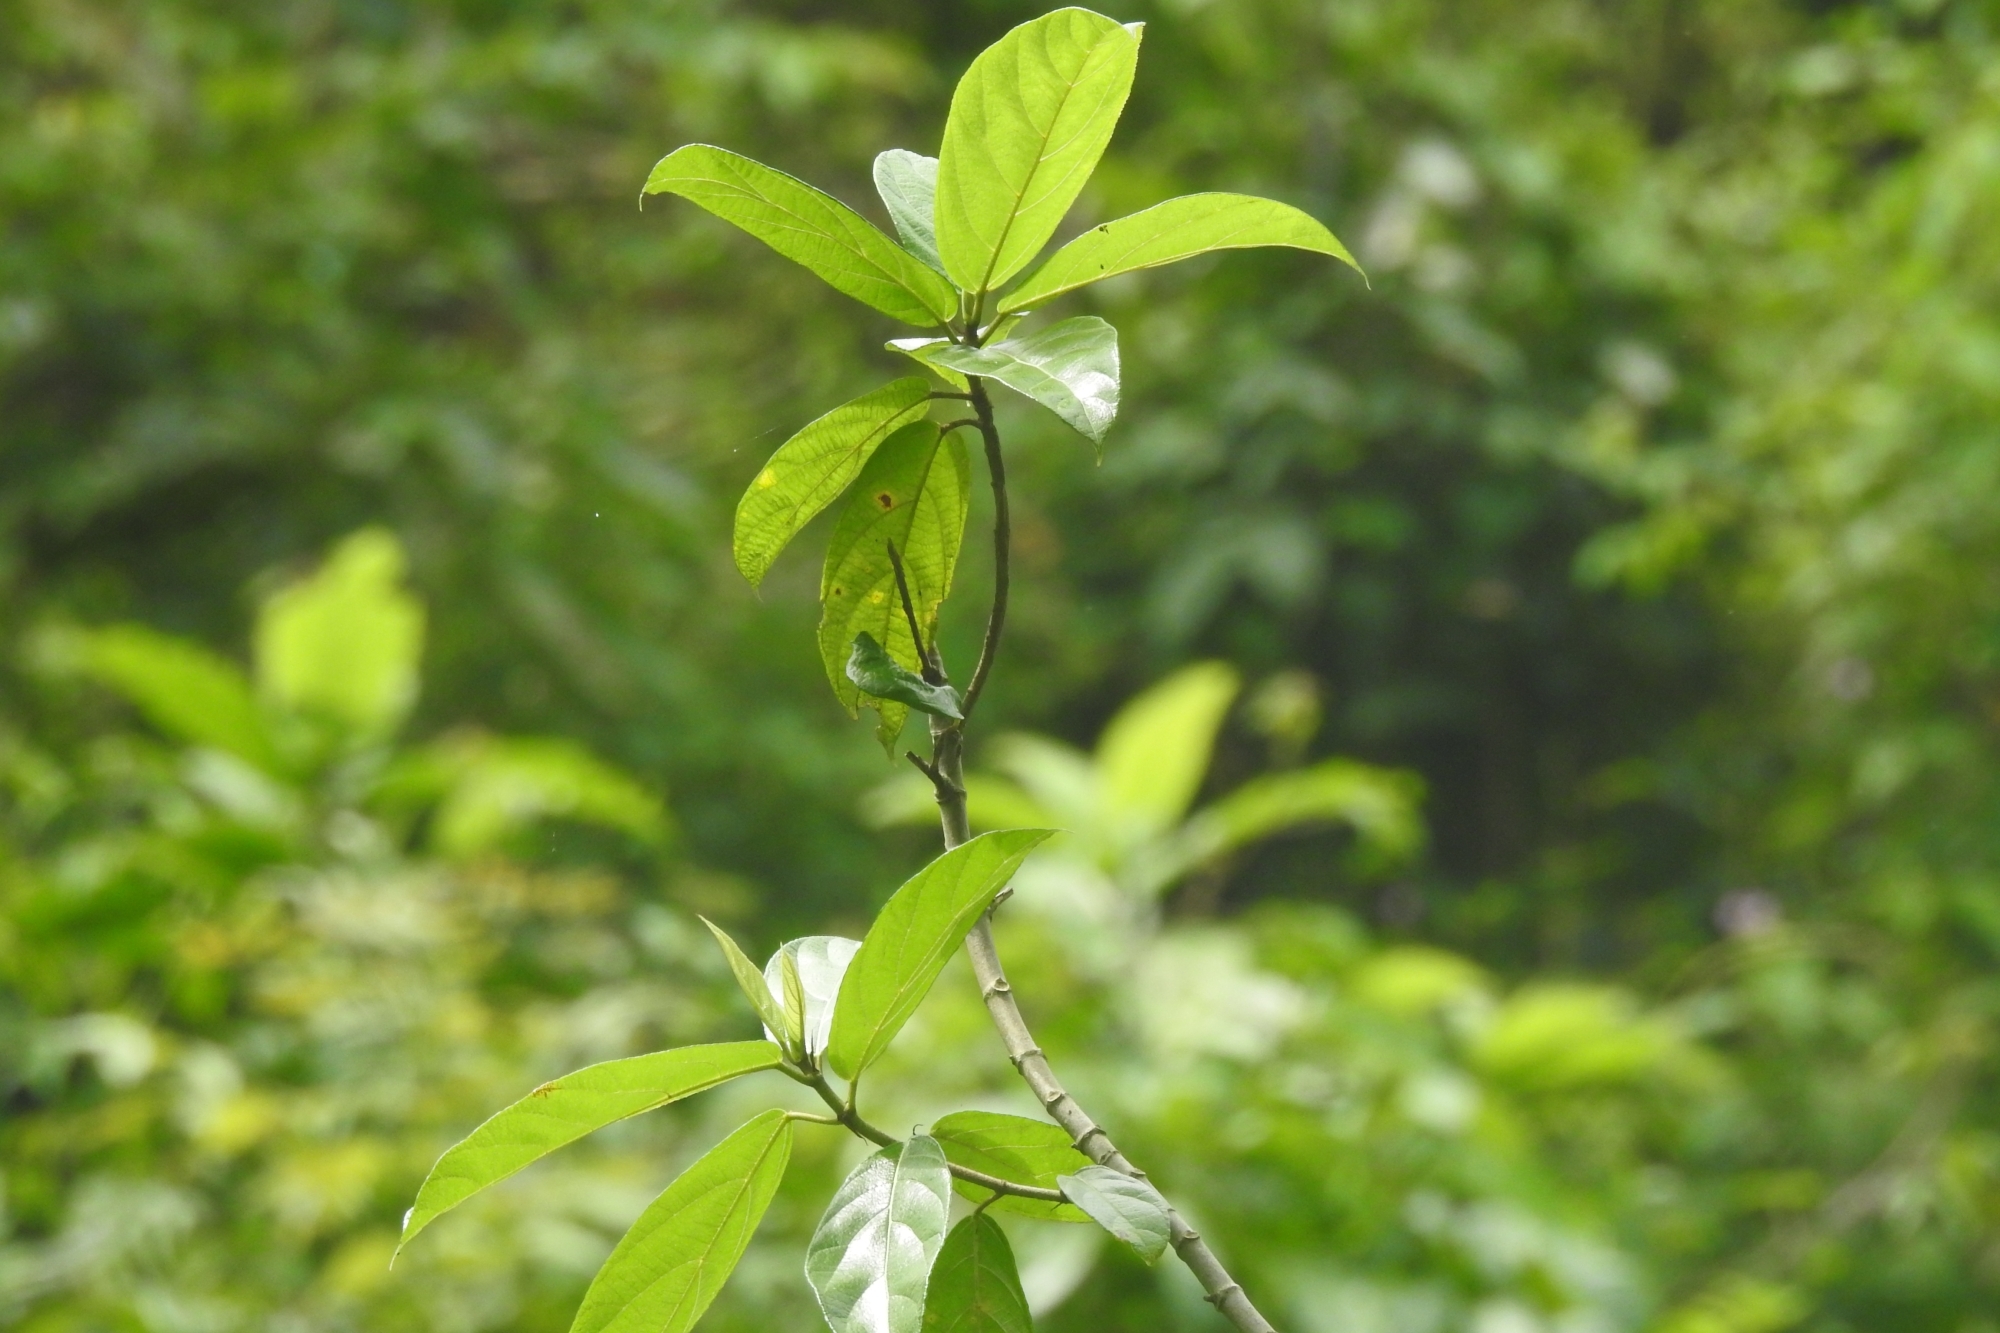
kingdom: Plantae
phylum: Tracheophyta
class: Magnoliopsida
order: Rosales
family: Moraceae
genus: Ficus
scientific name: Ficus hispida
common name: Hairy fig
